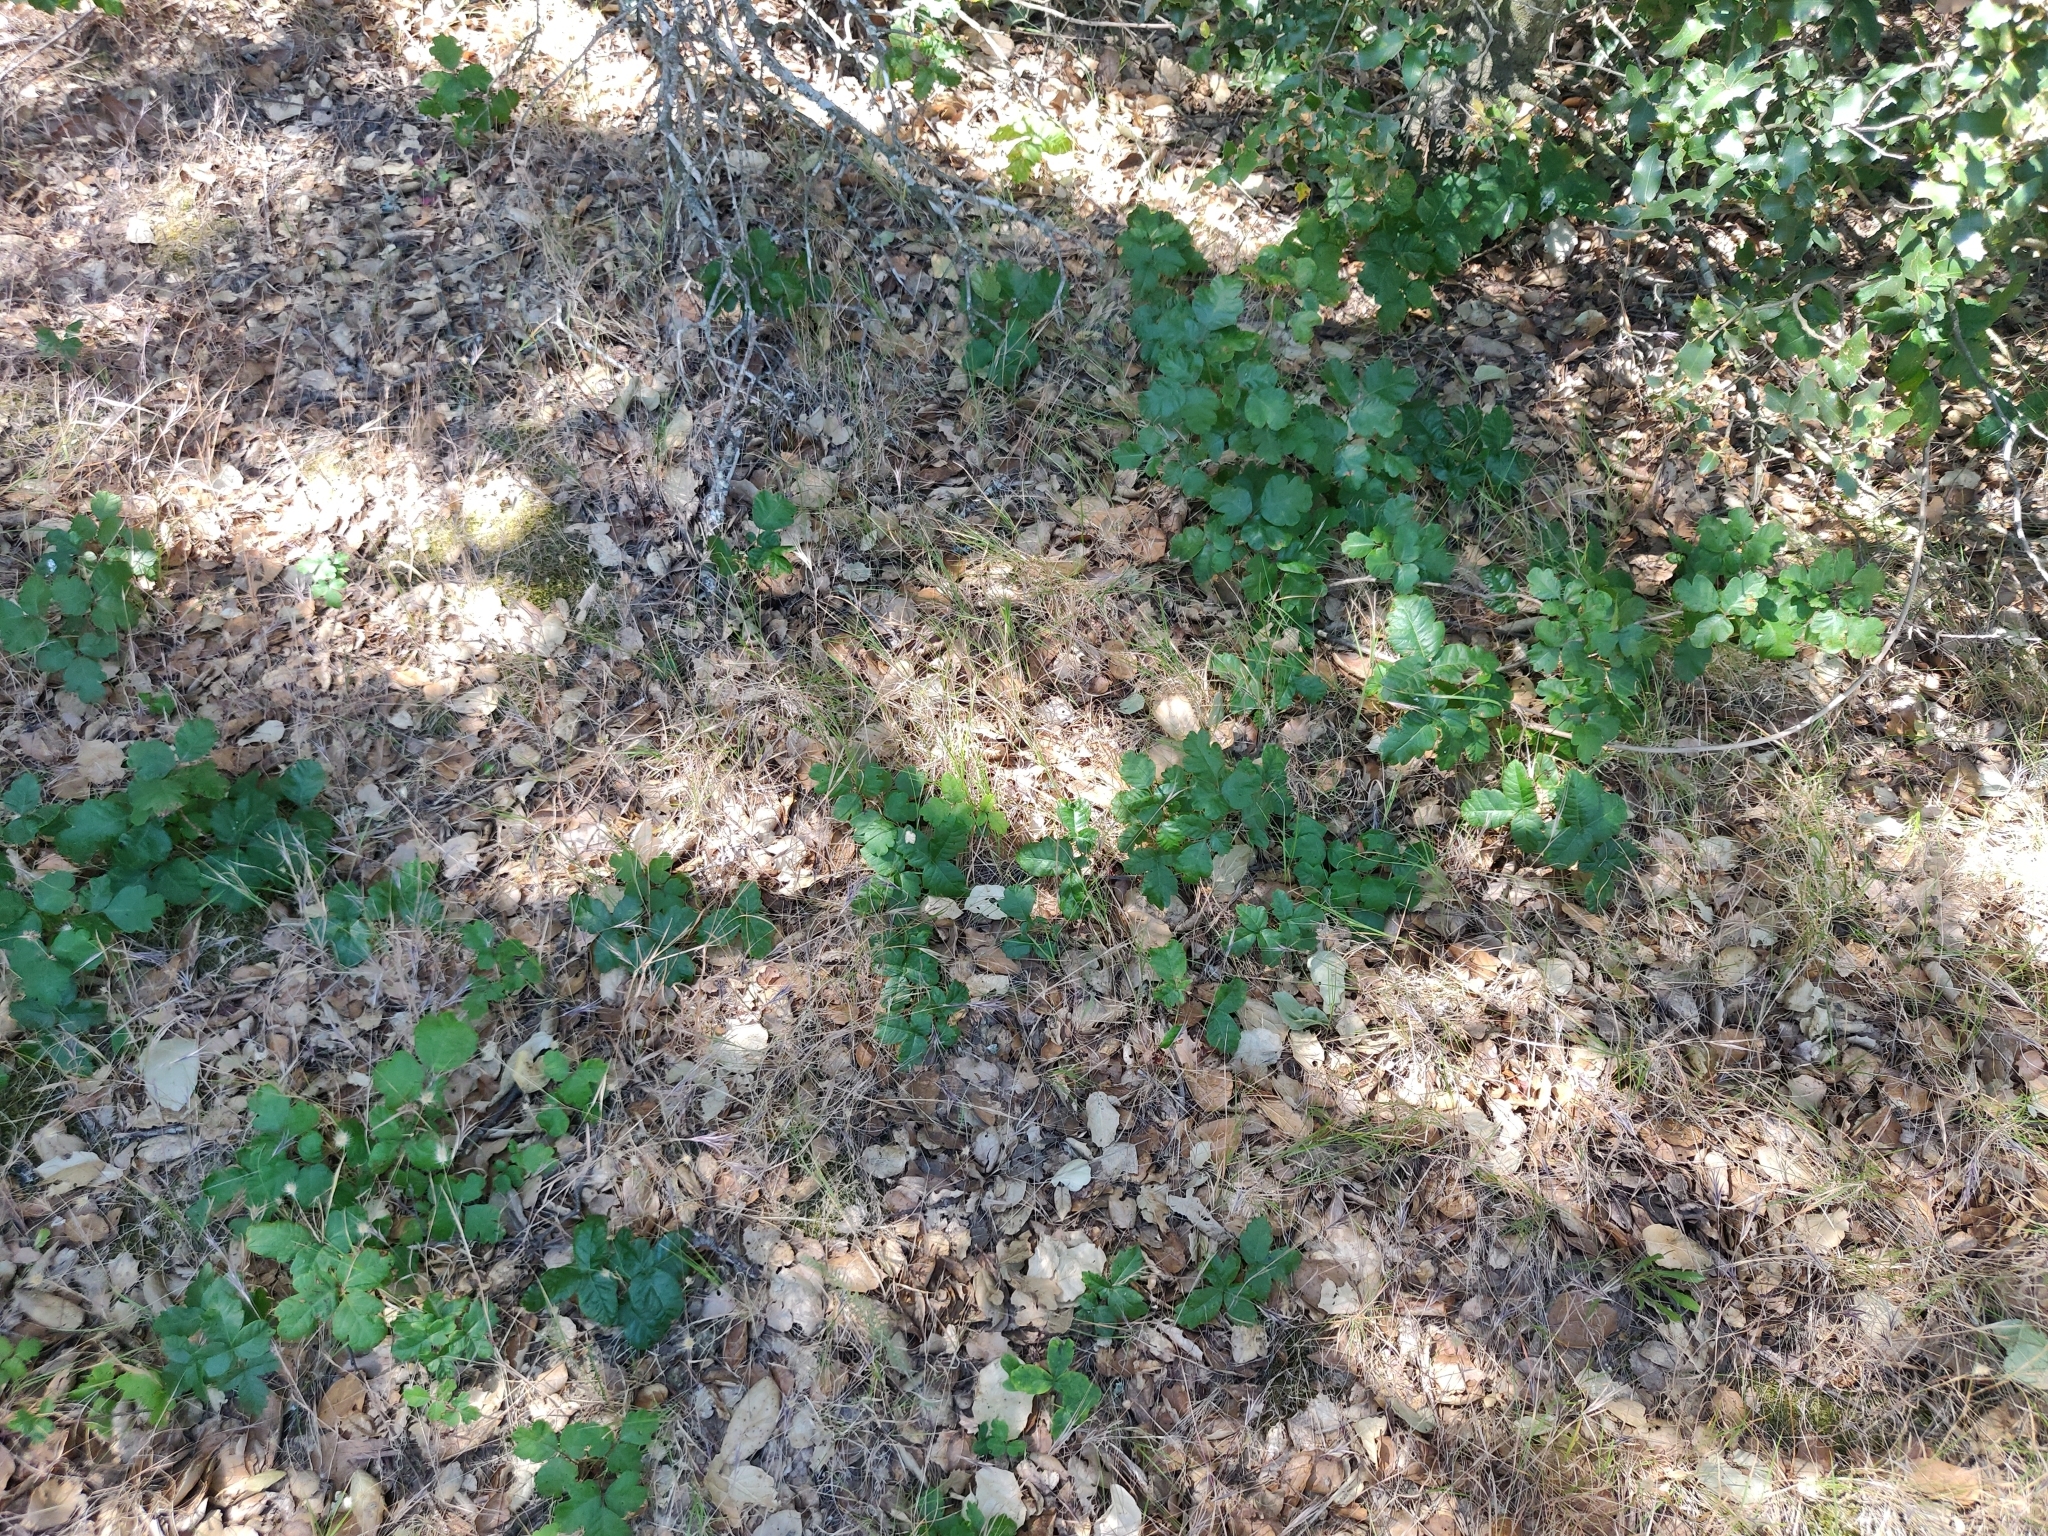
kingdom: Plantae
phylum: Tracheophyta
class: Magnoliopsida
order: Sapindales
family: Anacardiaceae
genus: Toxicodendron
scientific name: Toxicodendron diversilobum
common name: Pacific poison-oak
